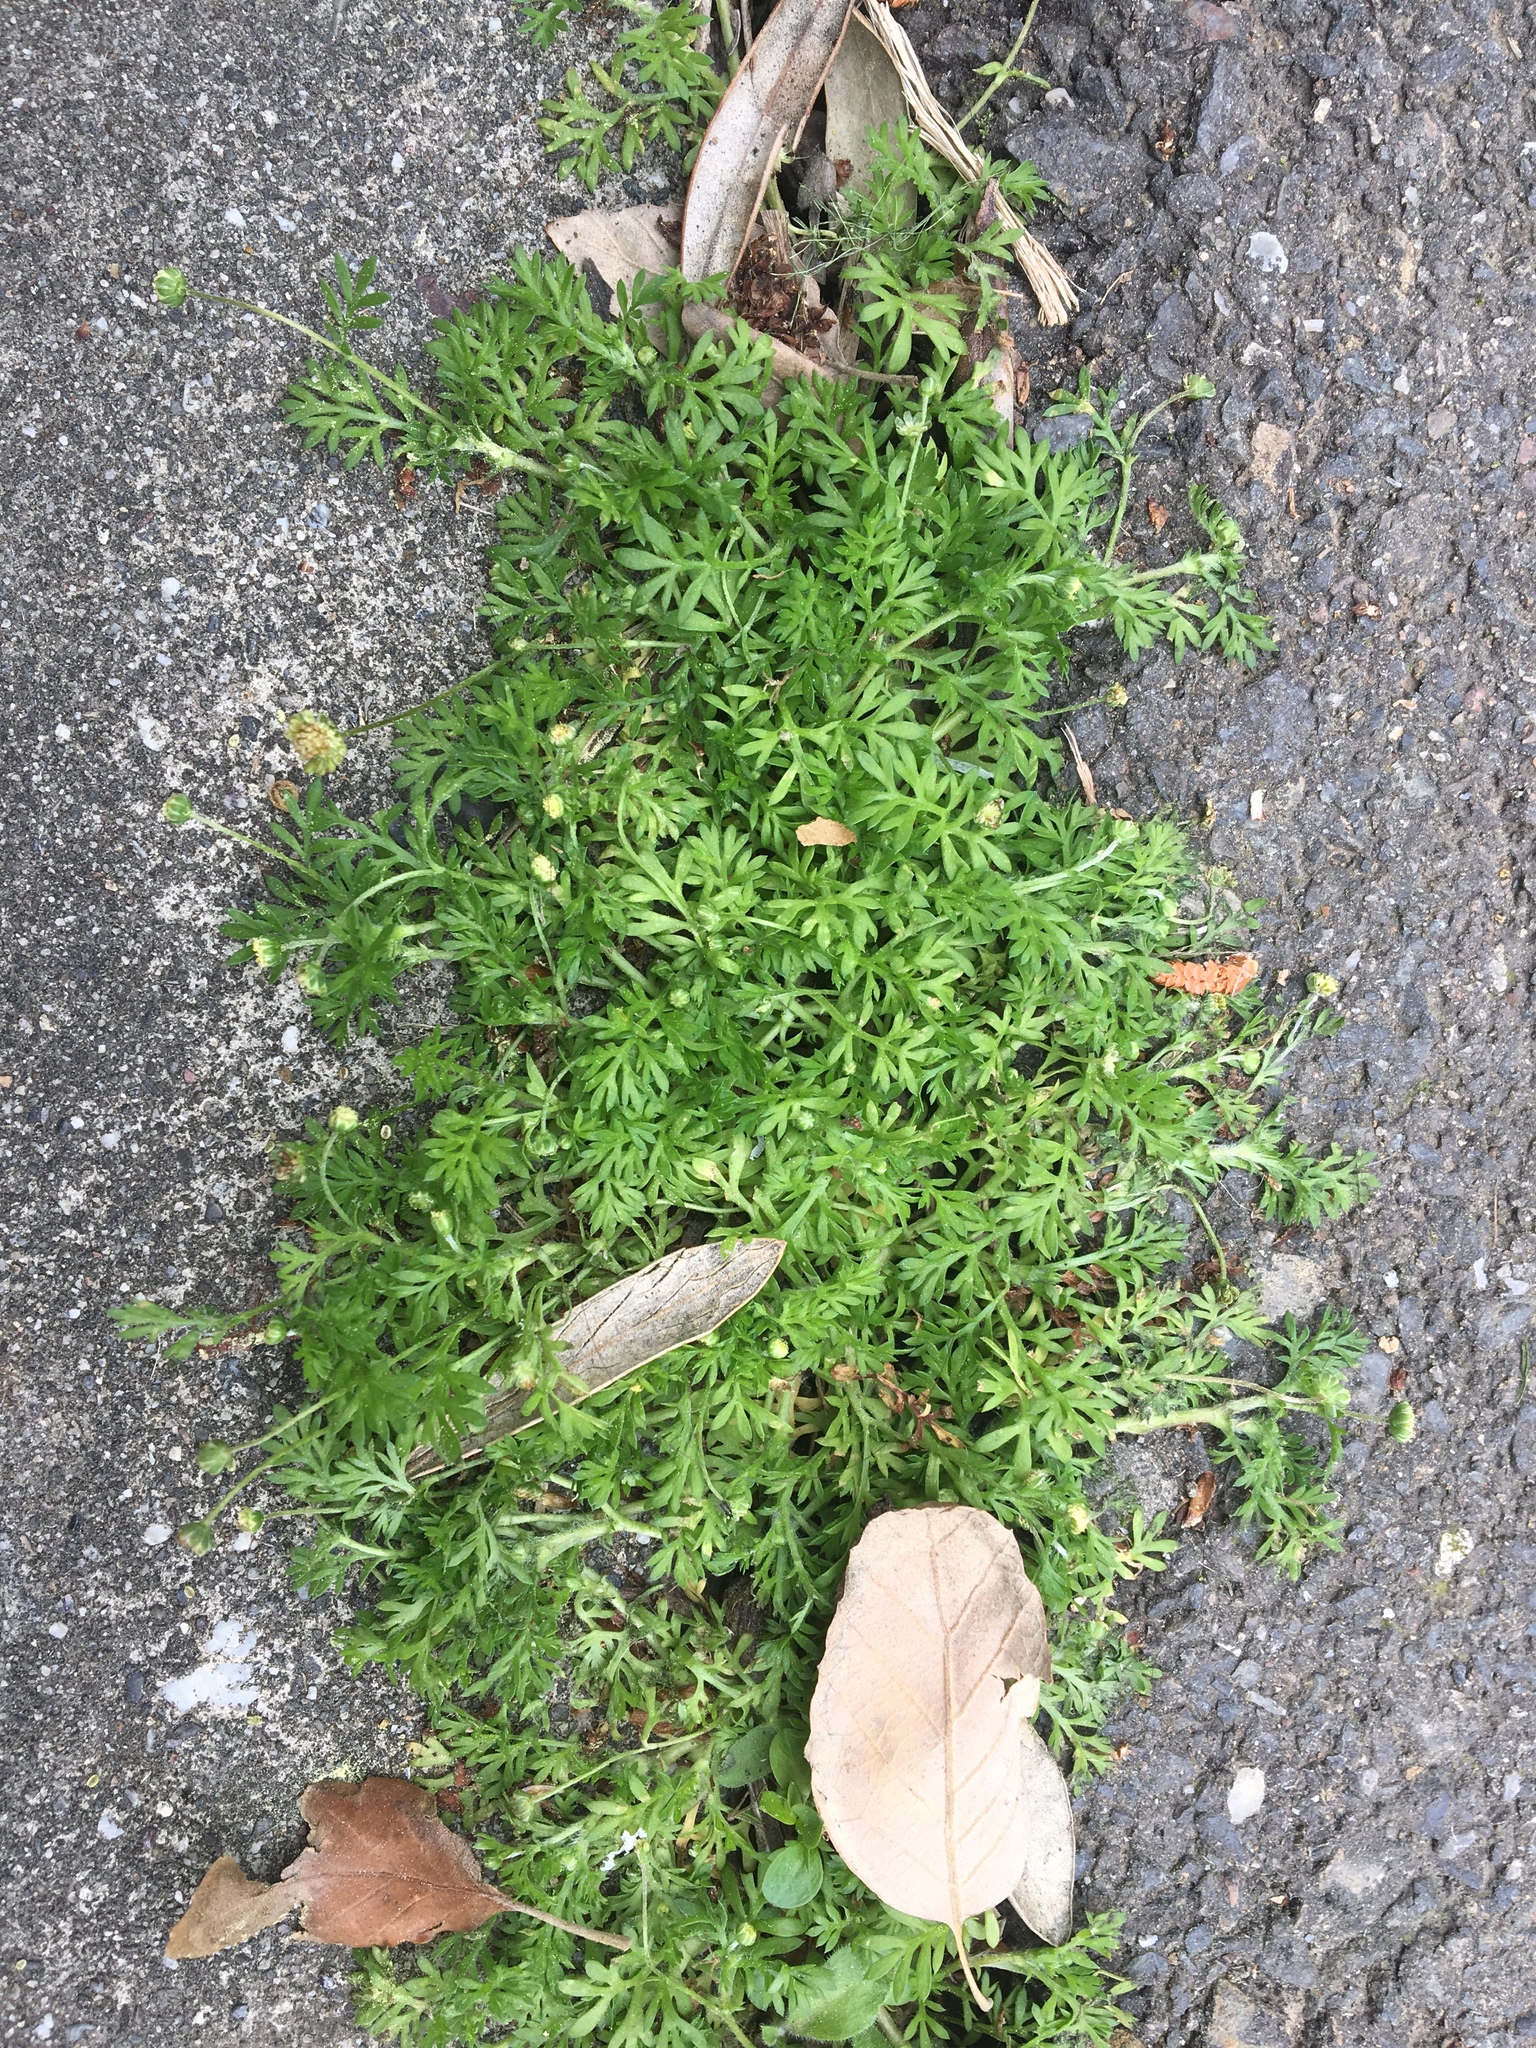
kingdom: Plantae
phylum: Tracheophyta
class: Magnoliopsida
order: Asterales
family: Asteraceae
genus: Cotula
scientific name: Cotula australis
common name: Australian waterbuttons
